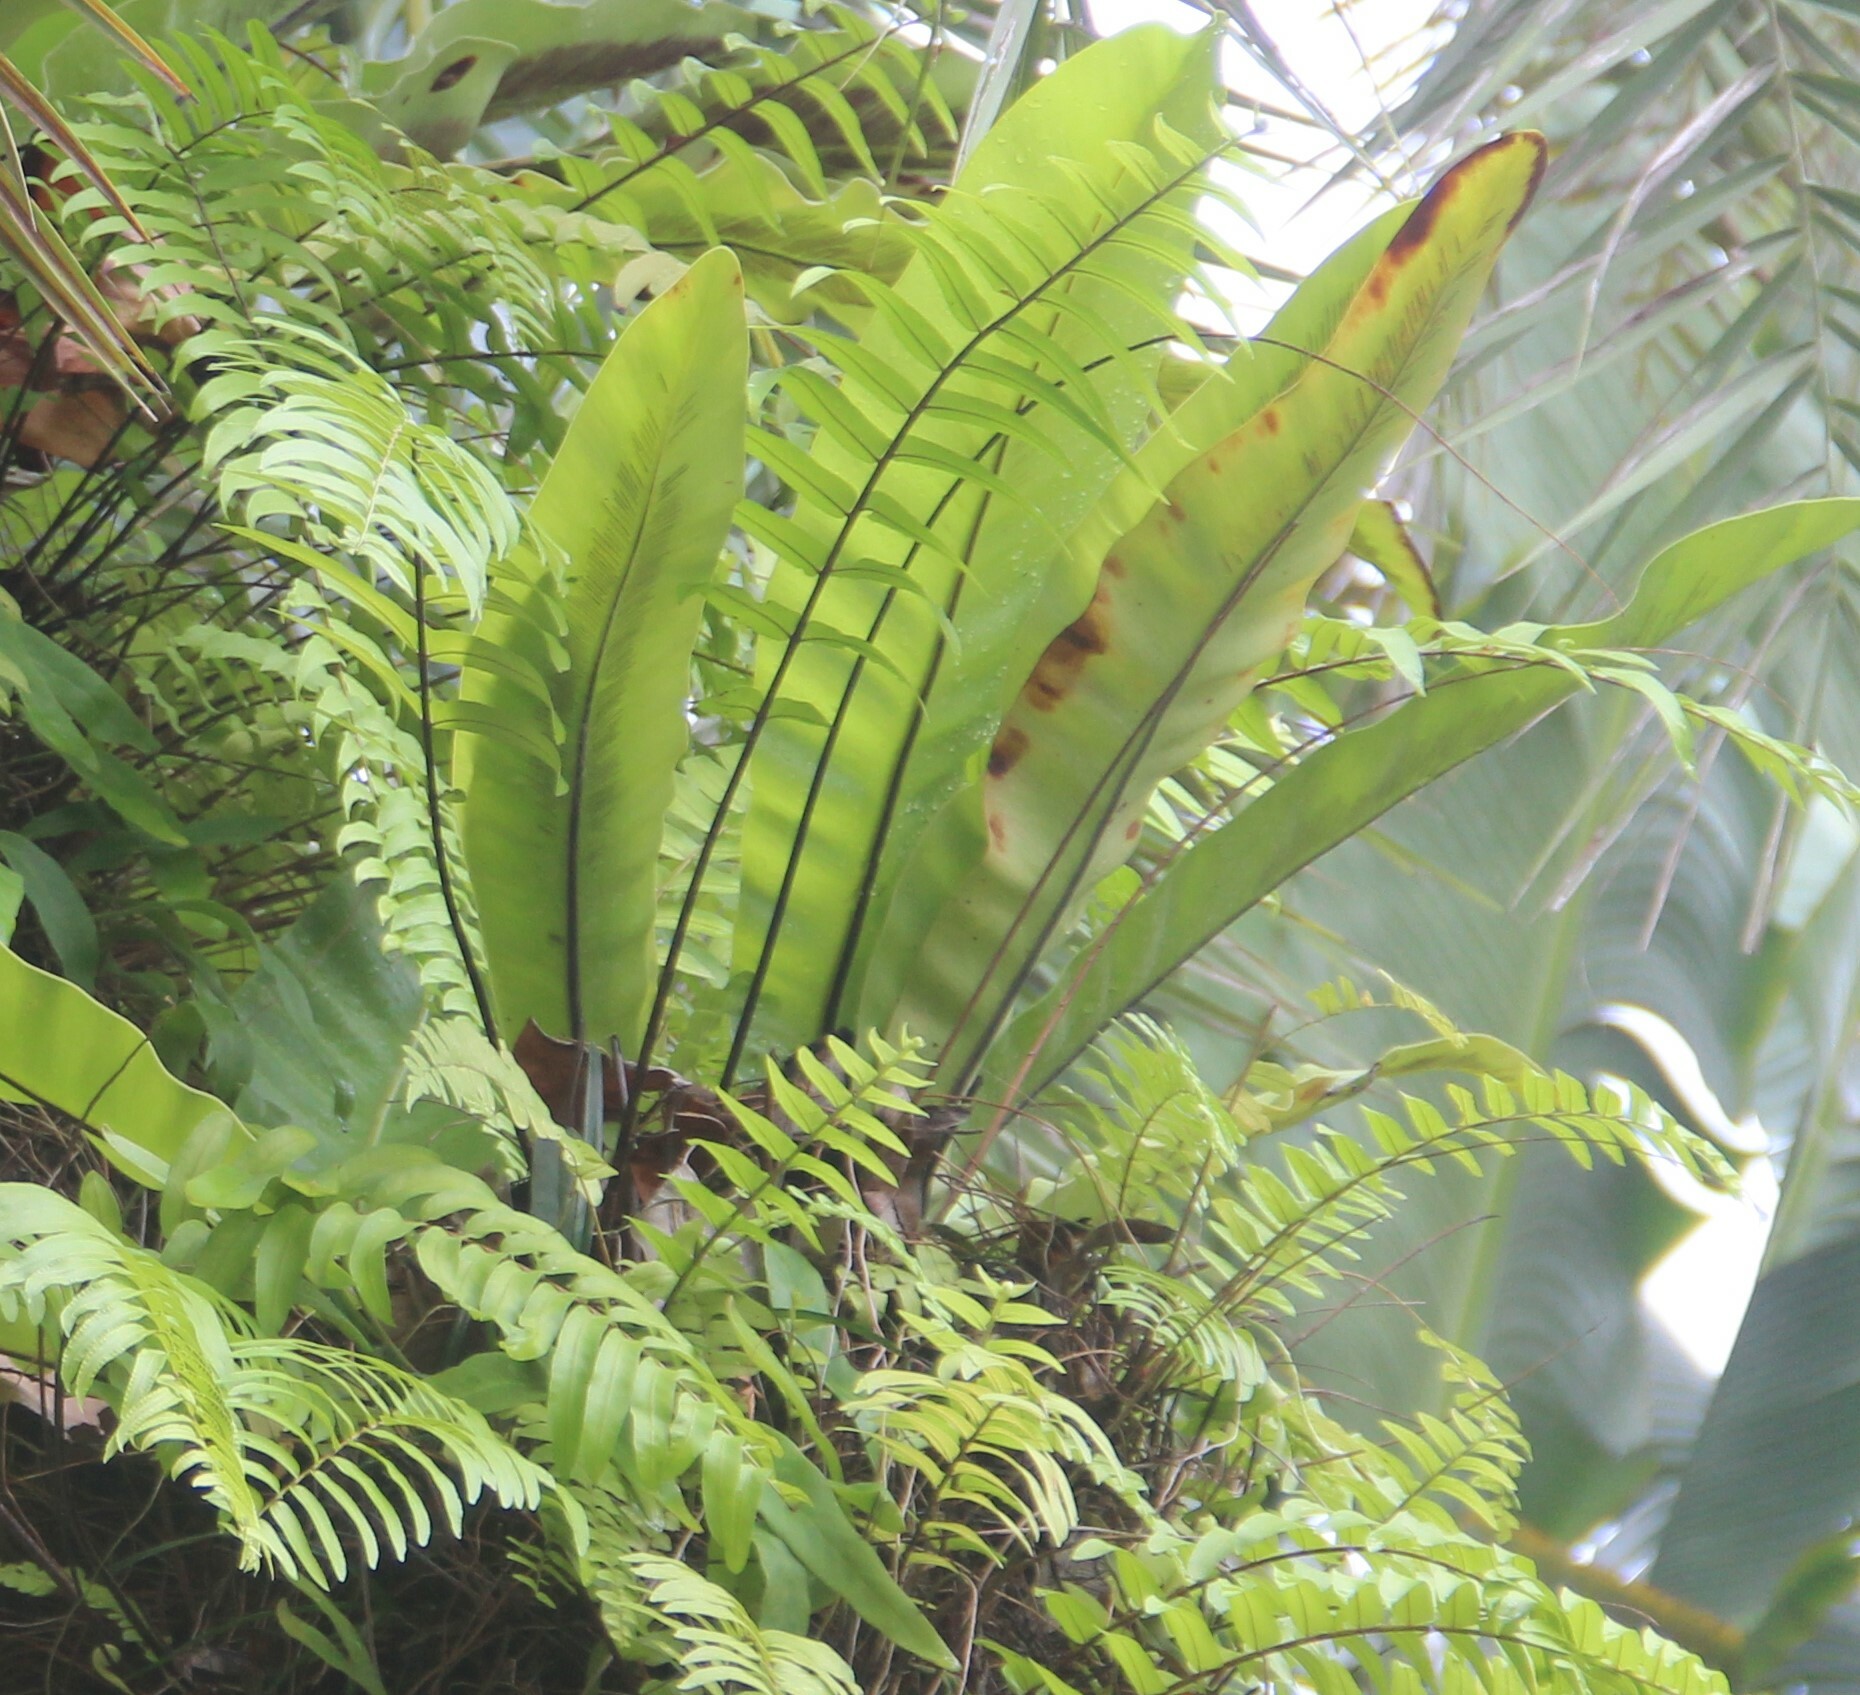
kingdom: Plantae
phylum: Tracheophyta
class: Polypodiopsida
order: Polypodiales
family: Aspleniaceae
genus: Asplenium
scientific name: Asplenium nidus
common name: Bird's-nest fern
